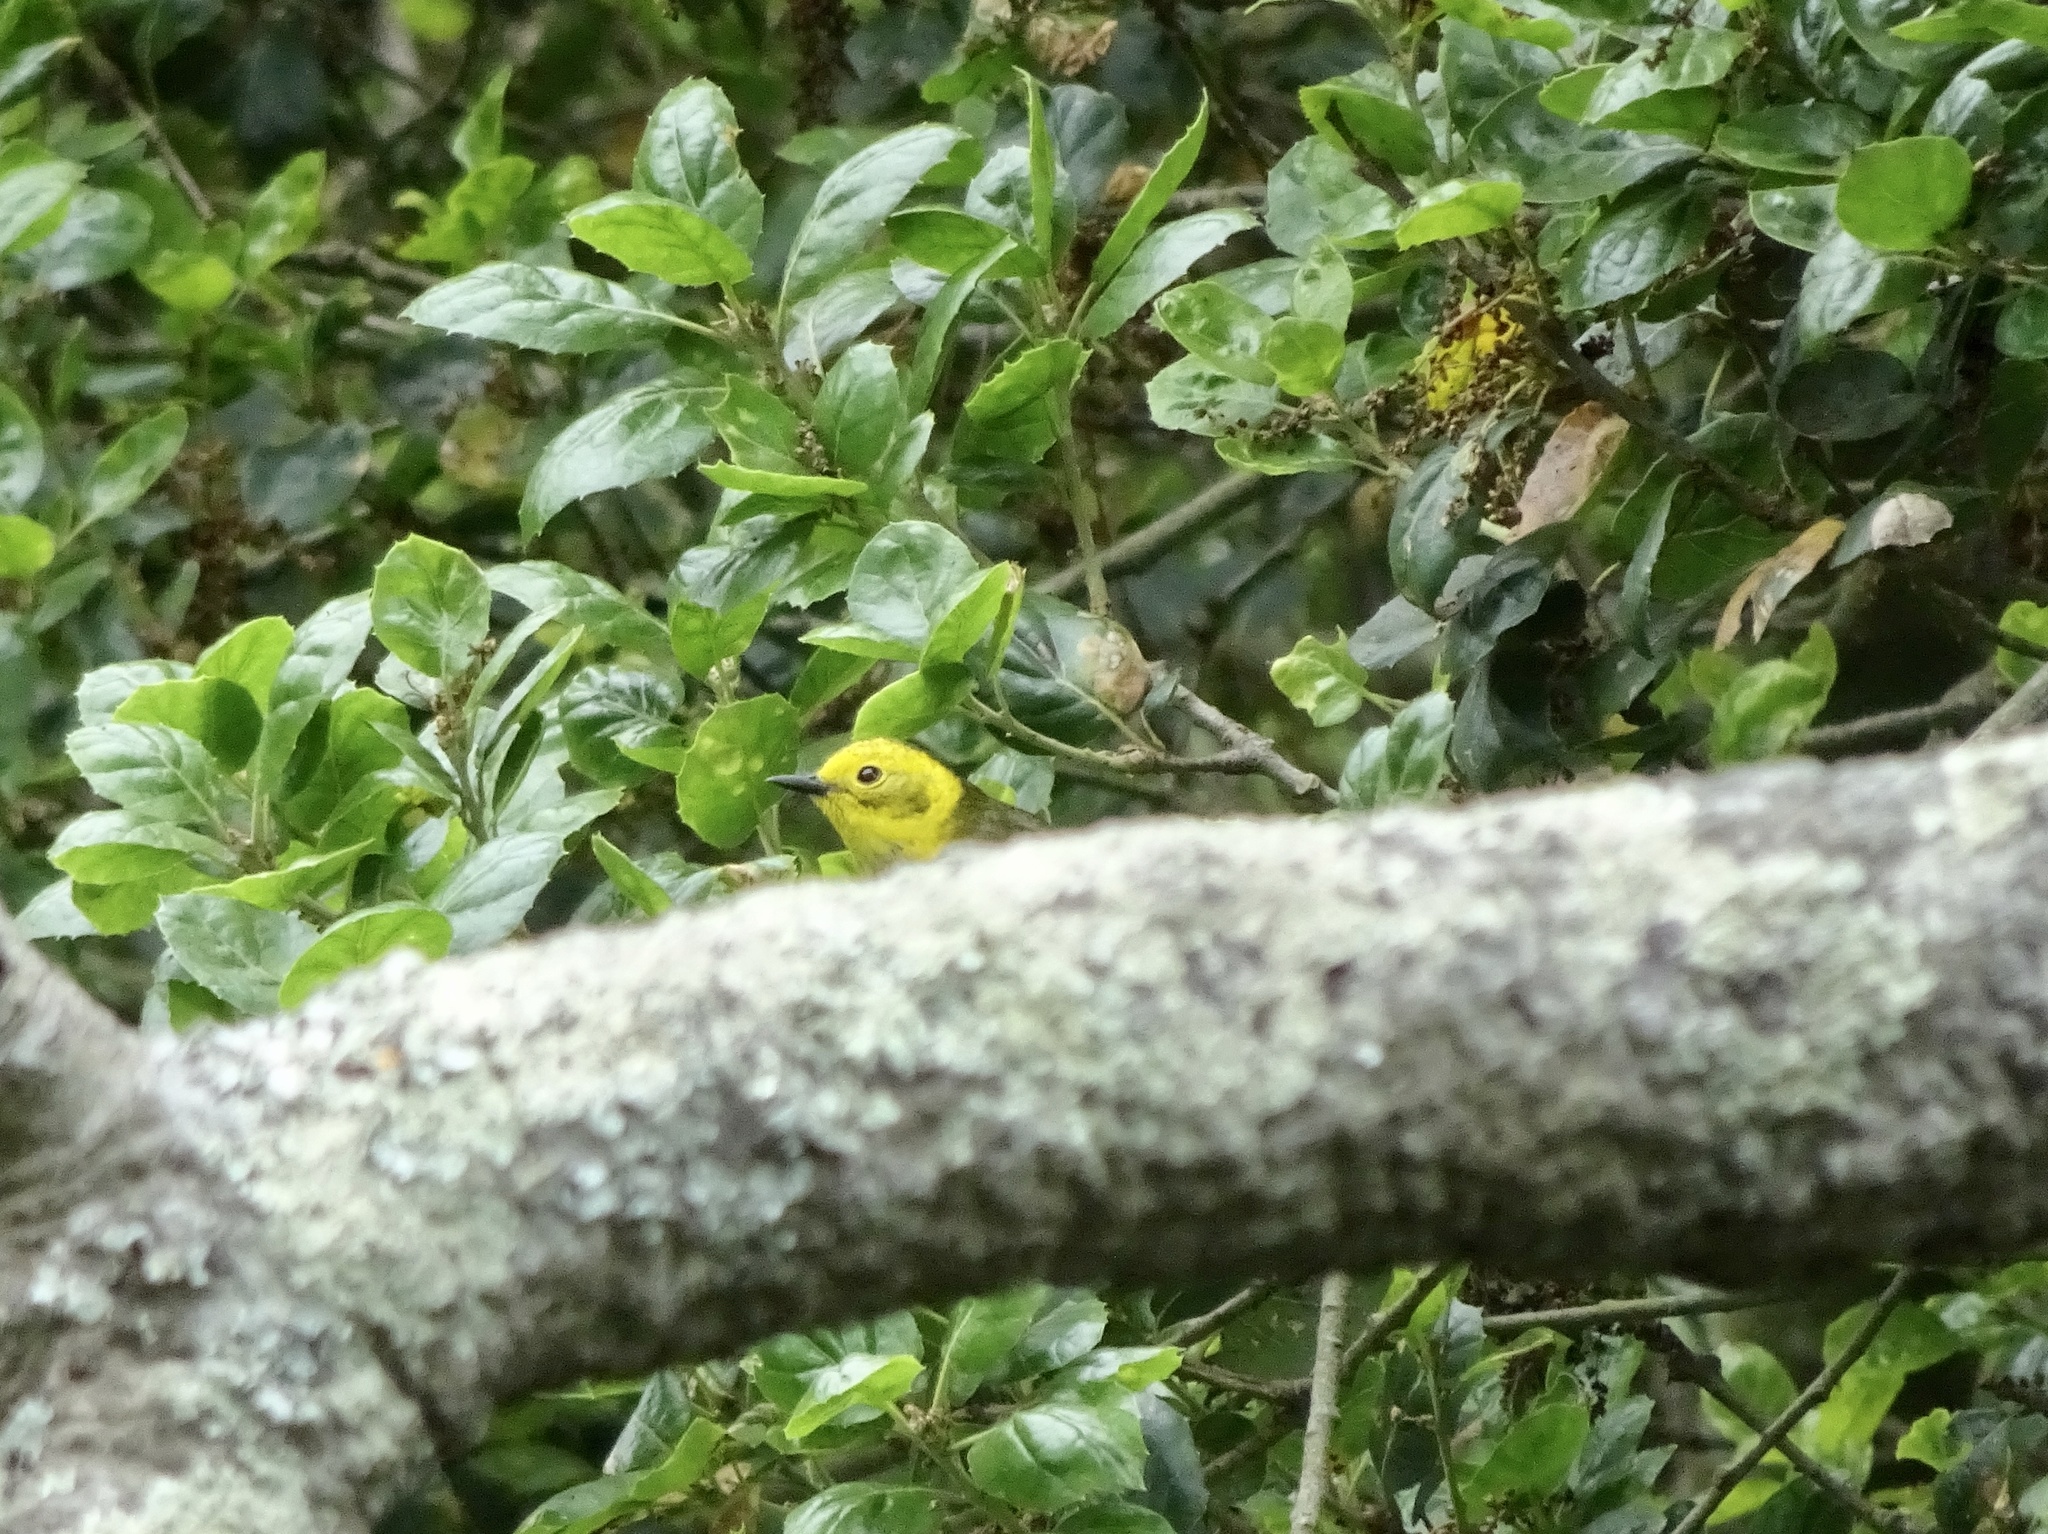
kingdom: Animalia
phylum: Chordata
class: Aves
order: Passeriformes
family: Parulidae
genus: Setophaga
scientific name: Setophaga occidentalis
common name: Hermit warbler
